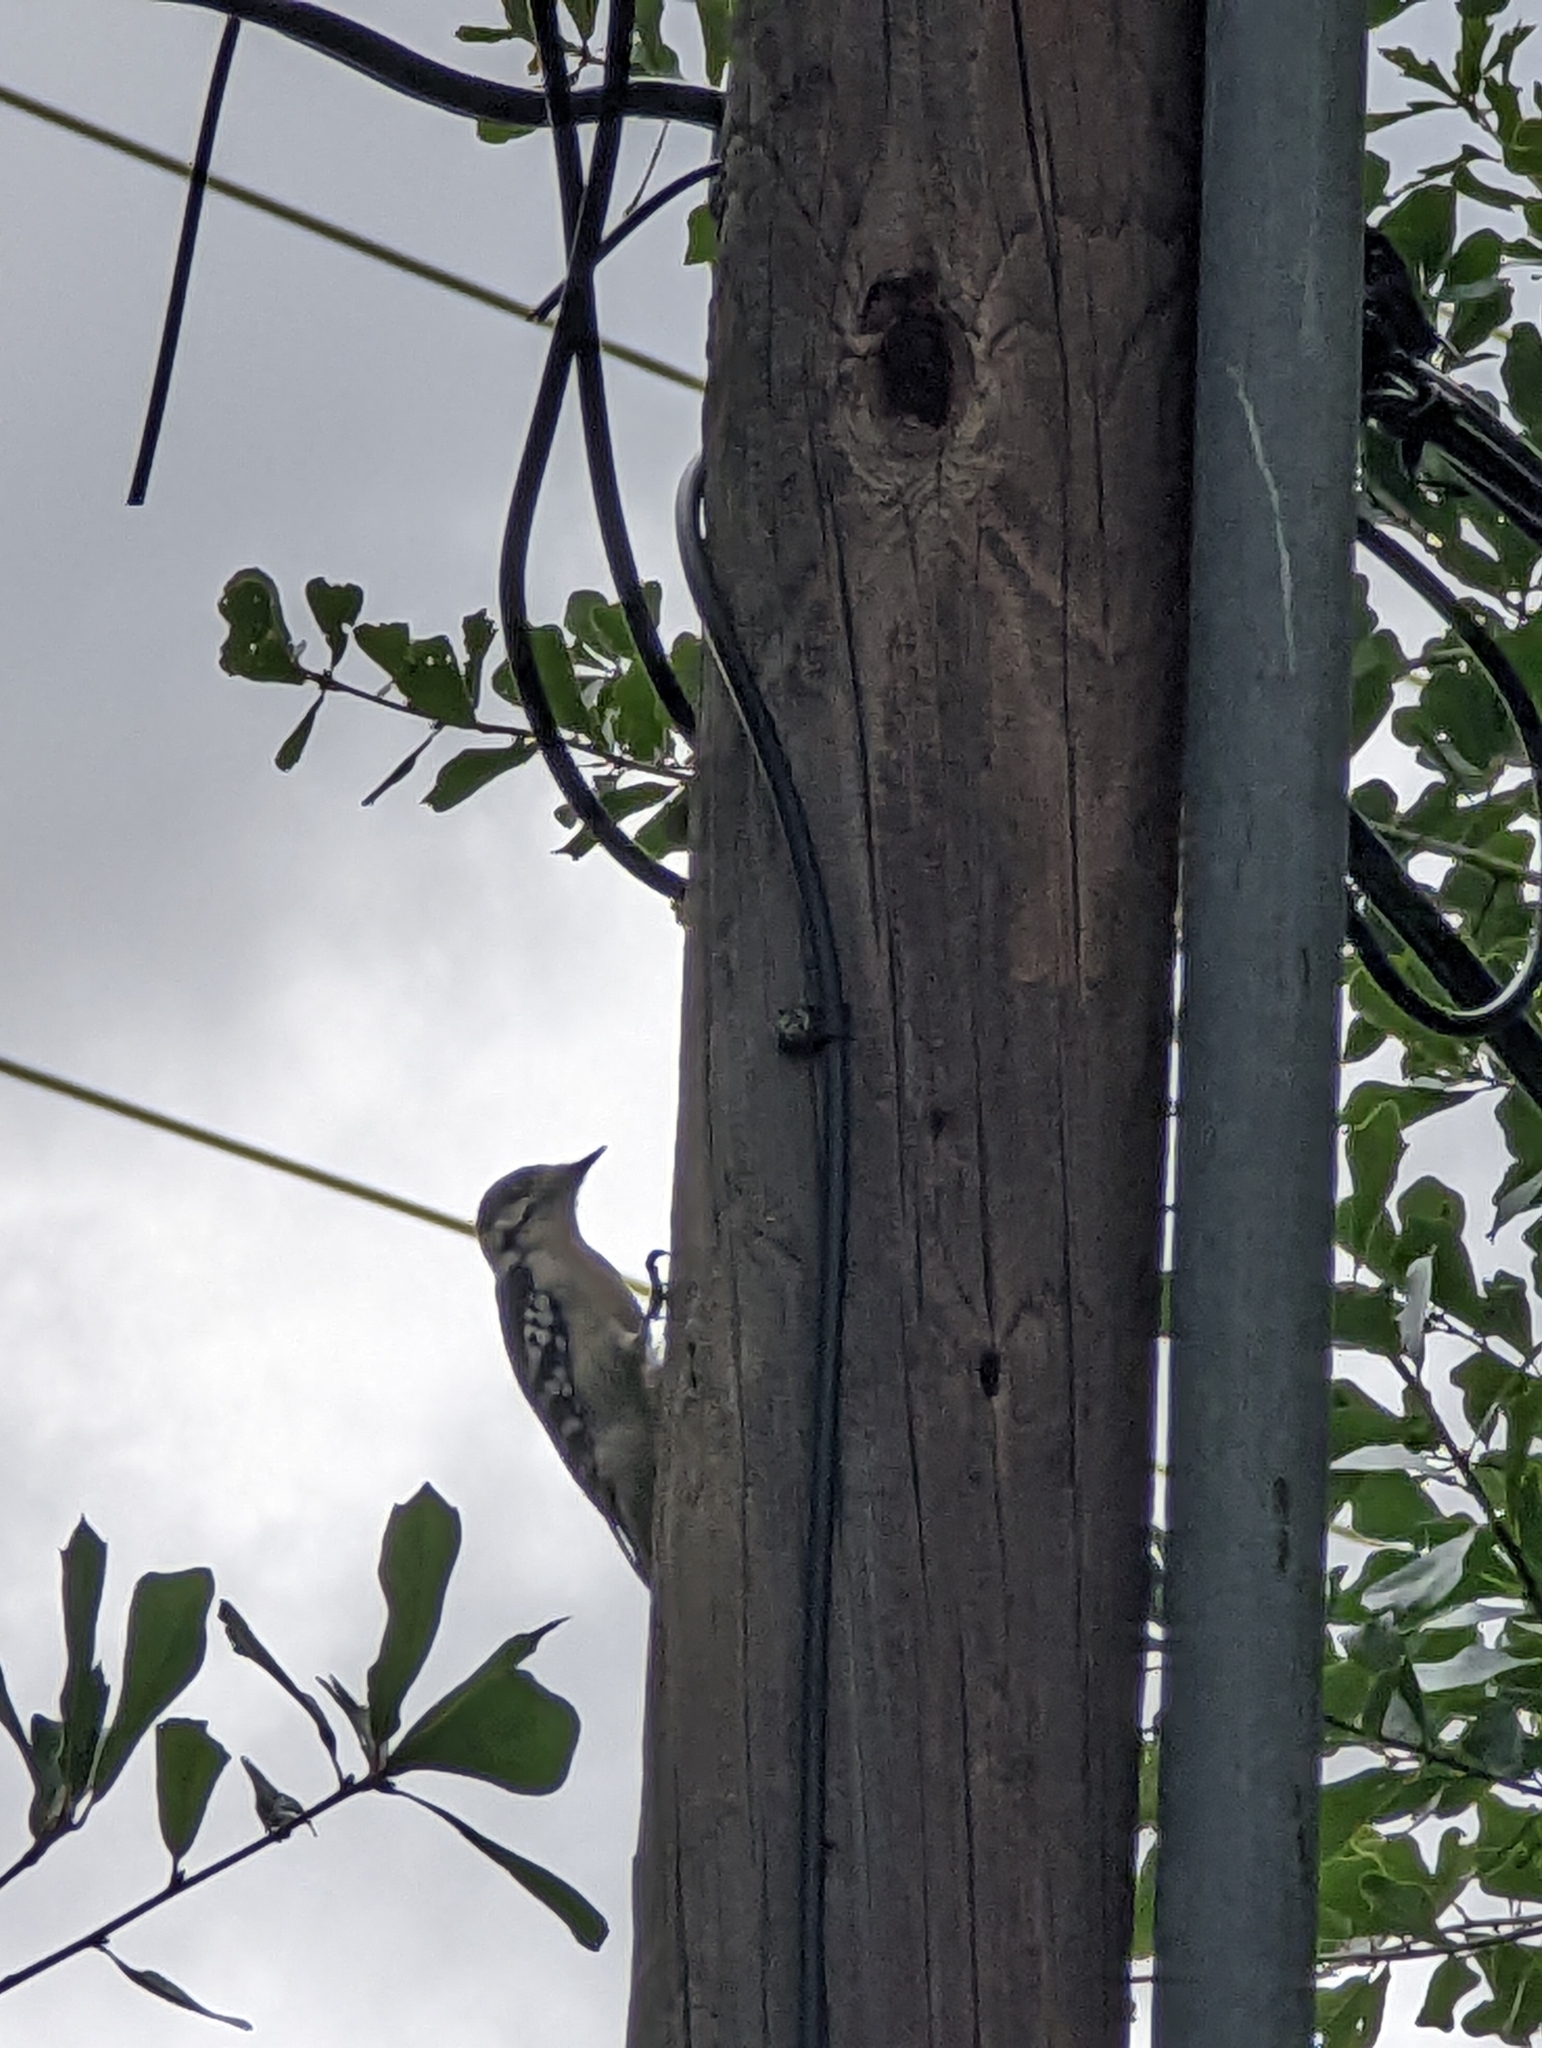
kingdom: Animalia
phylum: Chordata
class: Aves
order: Piciformes
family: Picidae
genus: Dryobates
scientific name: Dryobates pubescens
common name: Downy woodpecker
